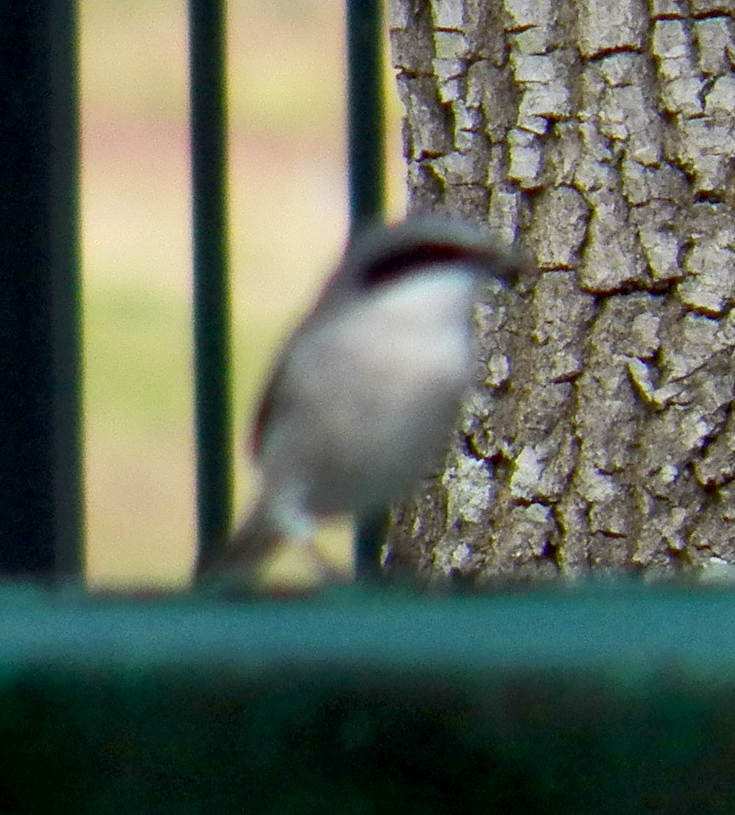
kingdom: Animalia
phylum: Chordata
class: Aves
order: Passeriformes
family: Laniidae
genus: Lanius
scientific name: Lanius ludovicianus
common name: Loggerhead shrike
